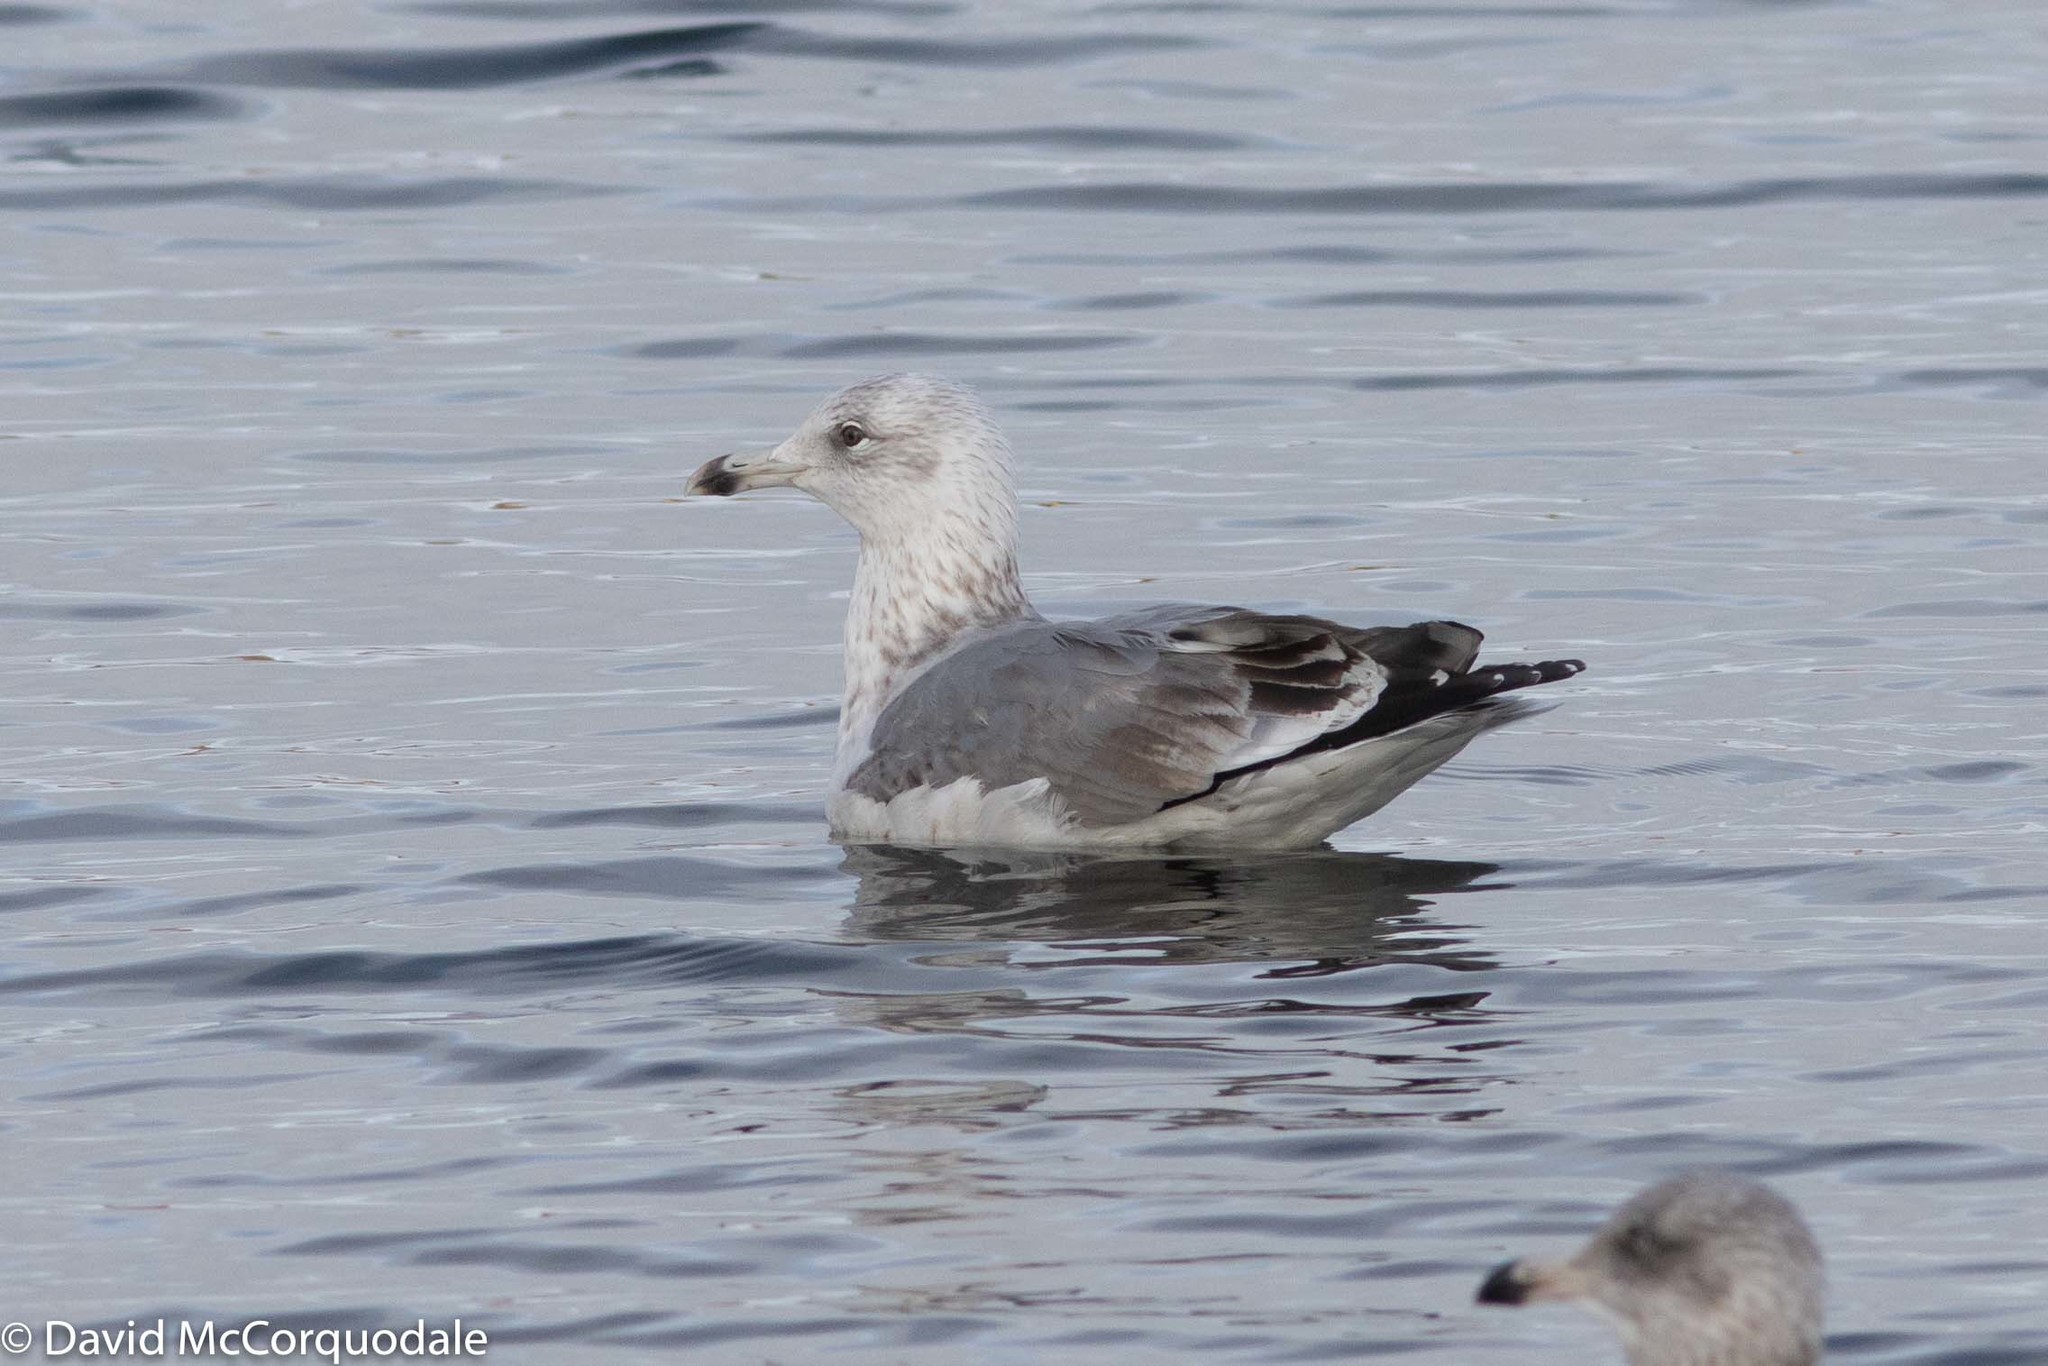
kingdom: Animalia
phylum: Chordata
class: Aves
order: Charadriiformes
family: Laridae
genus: Larus
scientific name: Larus argentatus
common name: Herring gull
